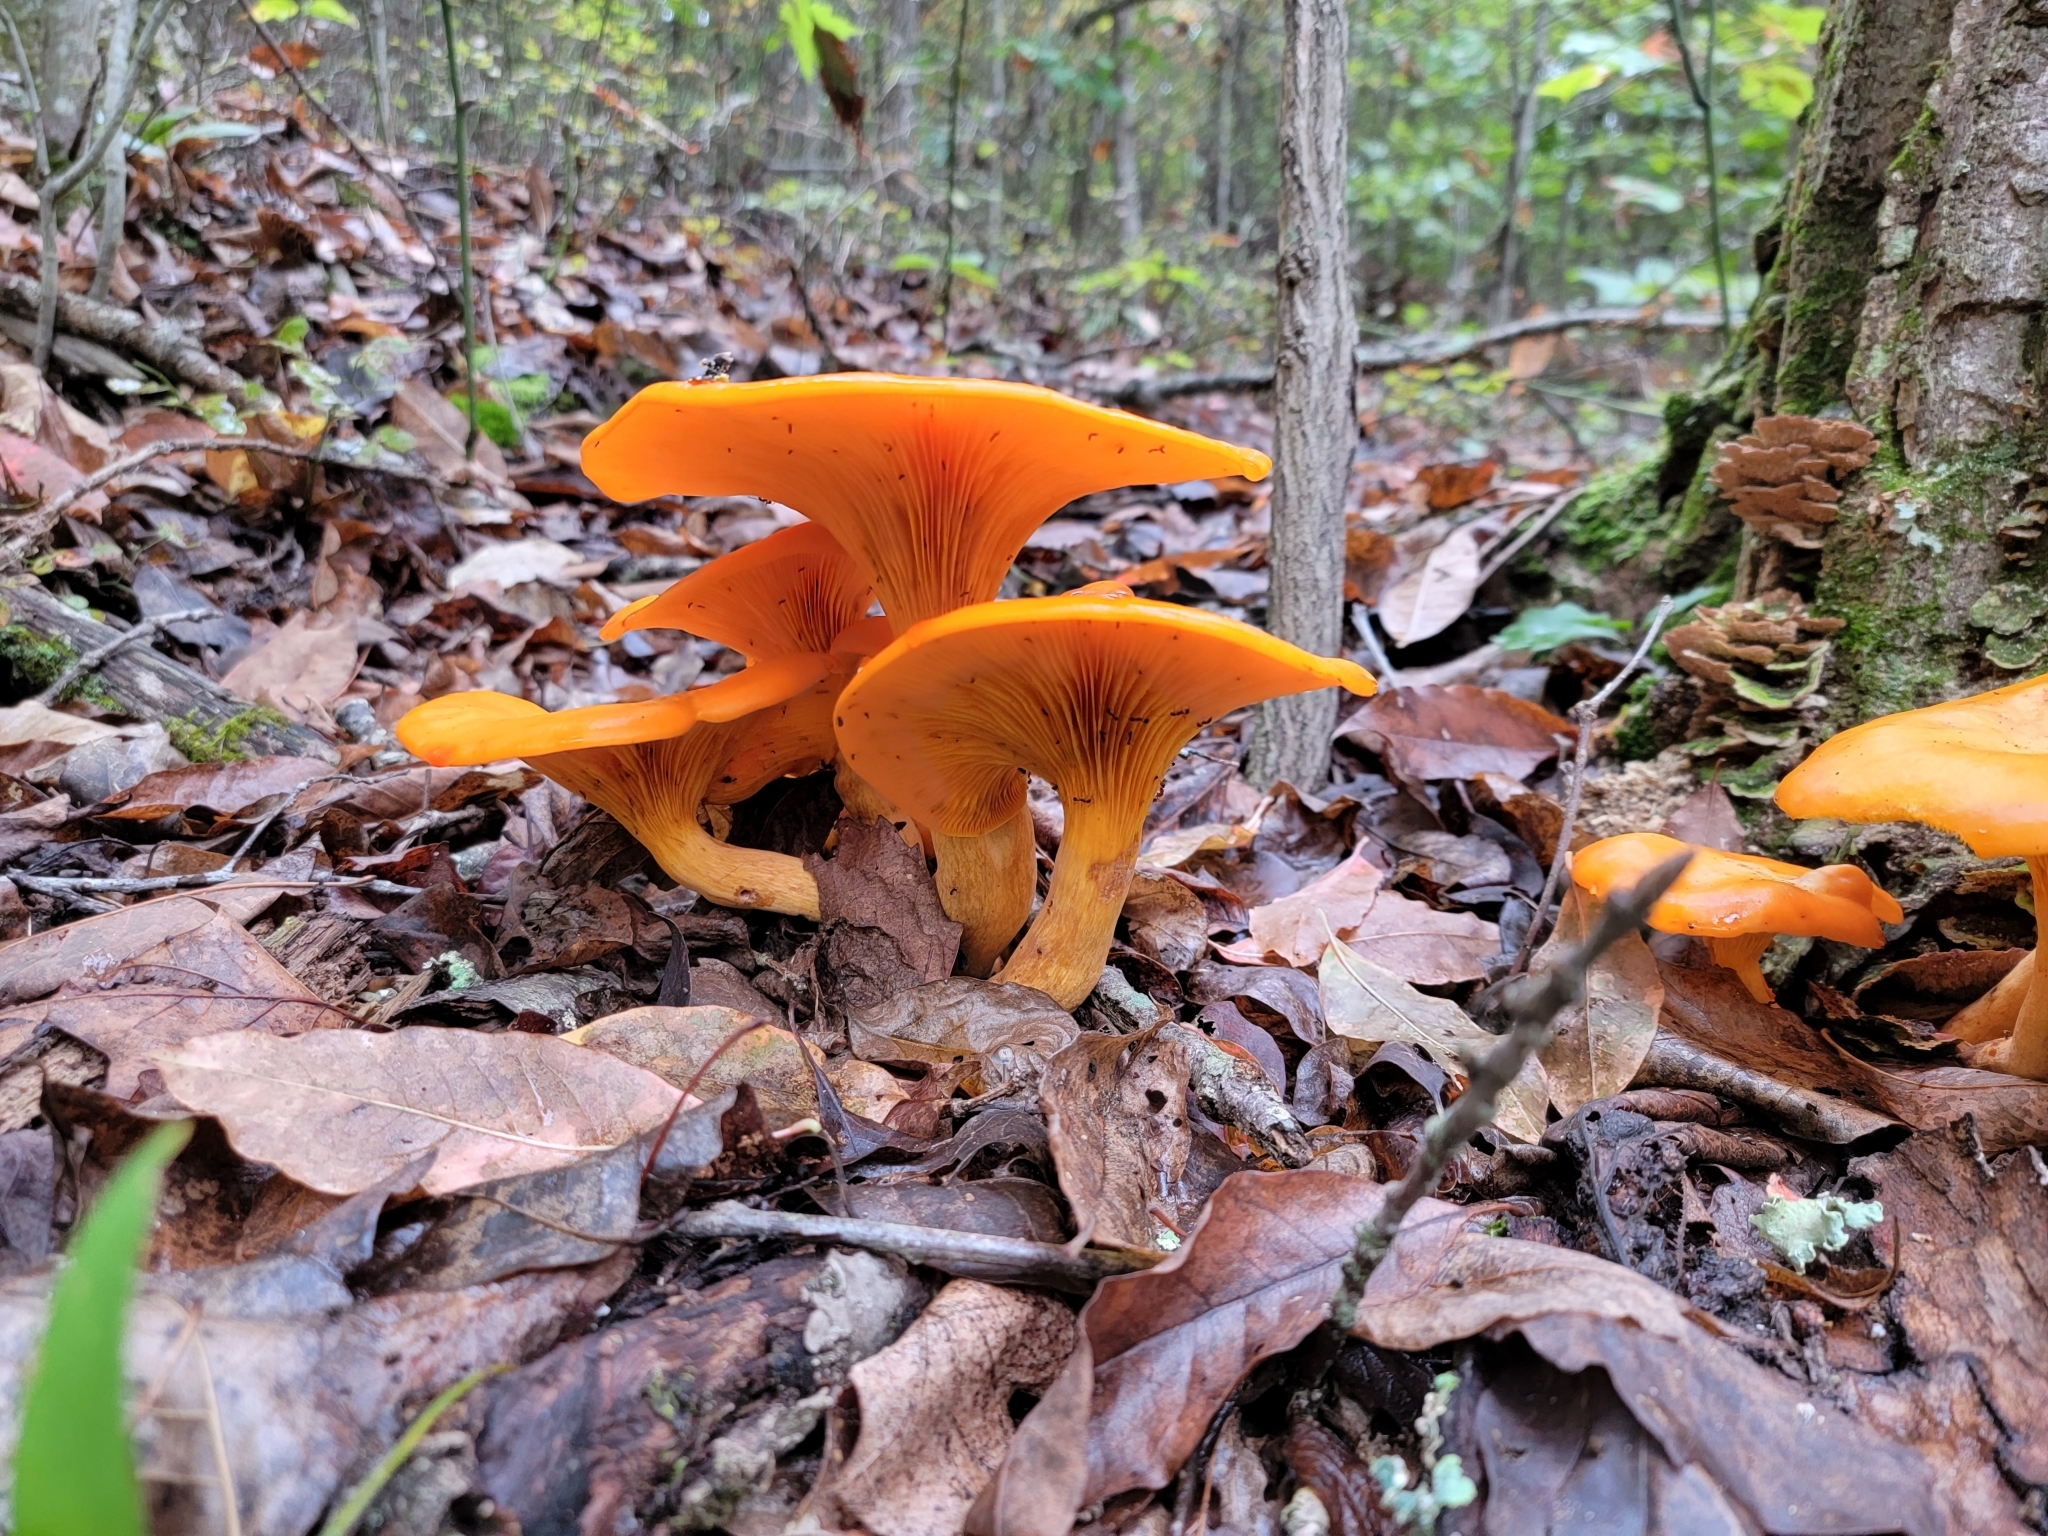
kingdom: Fungi
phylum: Basidiomycota
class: Agaricomycetes
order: Agaricales
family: Omphalotaceae
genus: Omphalotus
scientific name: Omphalotus illudens
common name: Jack o lantern
